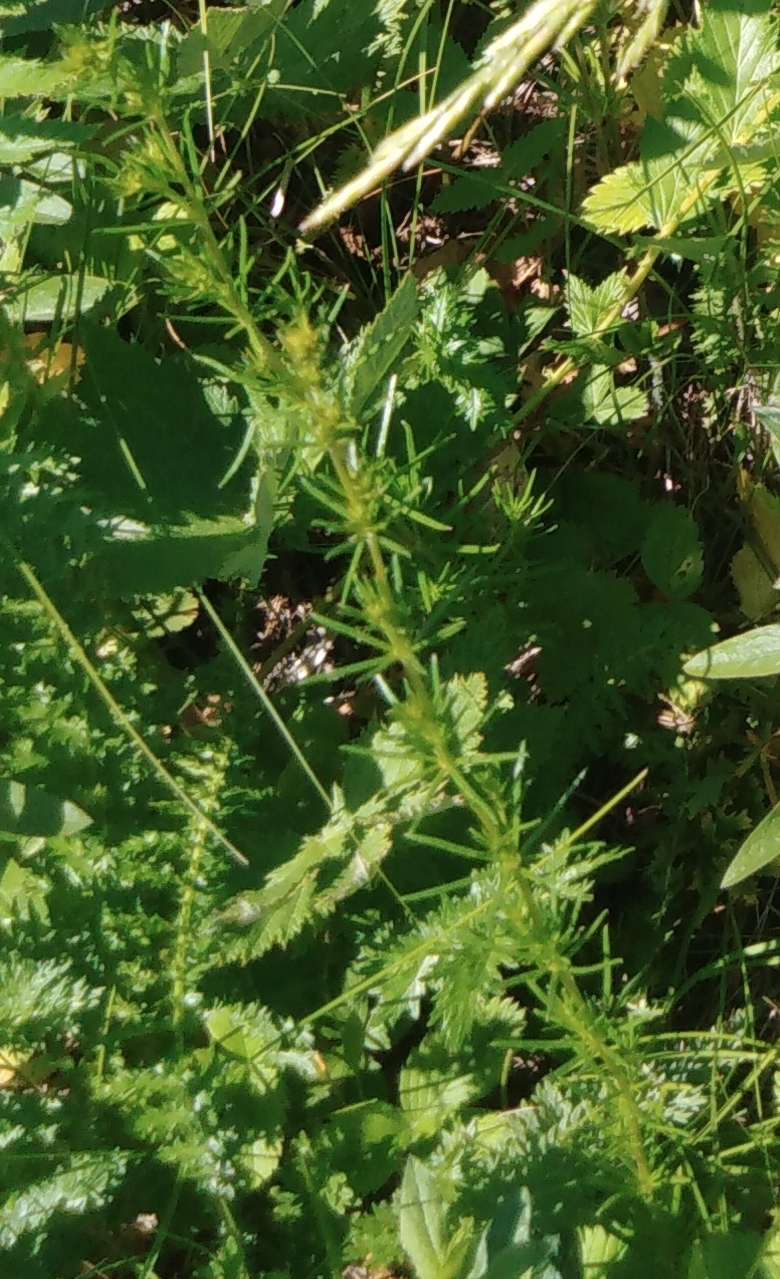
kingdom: Plantae
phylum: Tracheophyta
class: Magnoliopsida
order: Gentianales
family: Rubiaceae
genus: Galium
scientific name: Galium verum
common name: Lady's bedstraw
